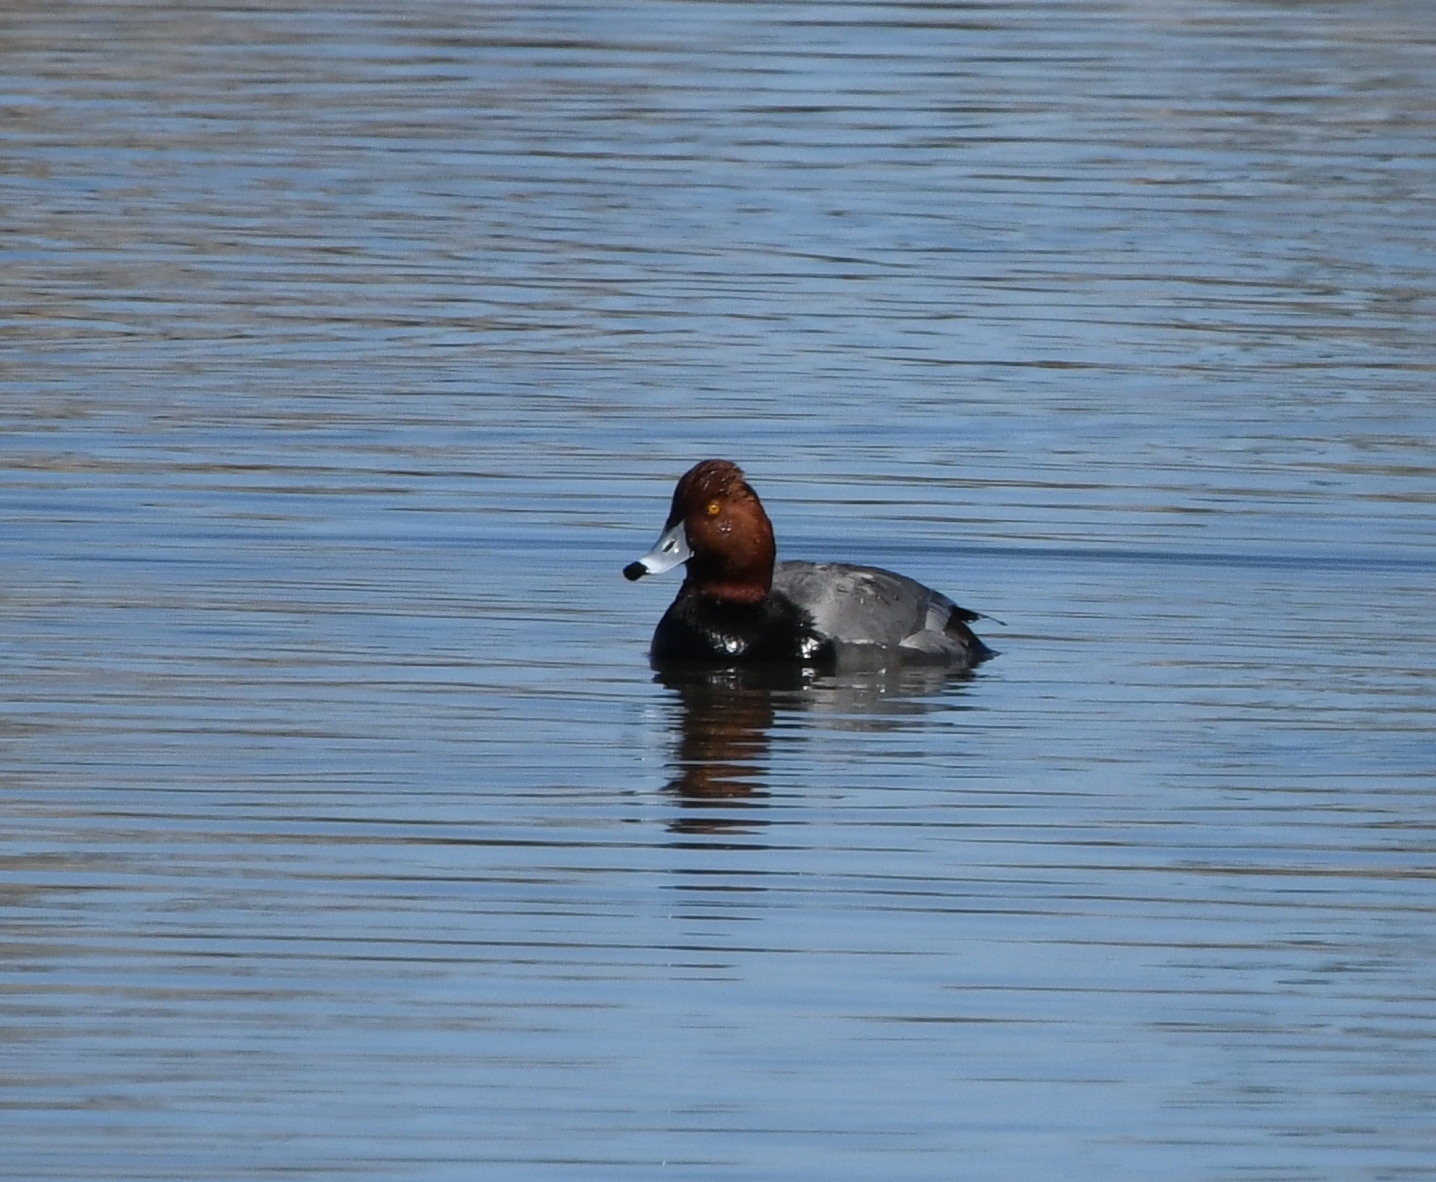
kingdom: Animalia
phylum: Chordata
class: Aves
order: Anseriformes
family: Anatidae
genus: Aythya
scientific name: Aythya americana
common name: Redhead
